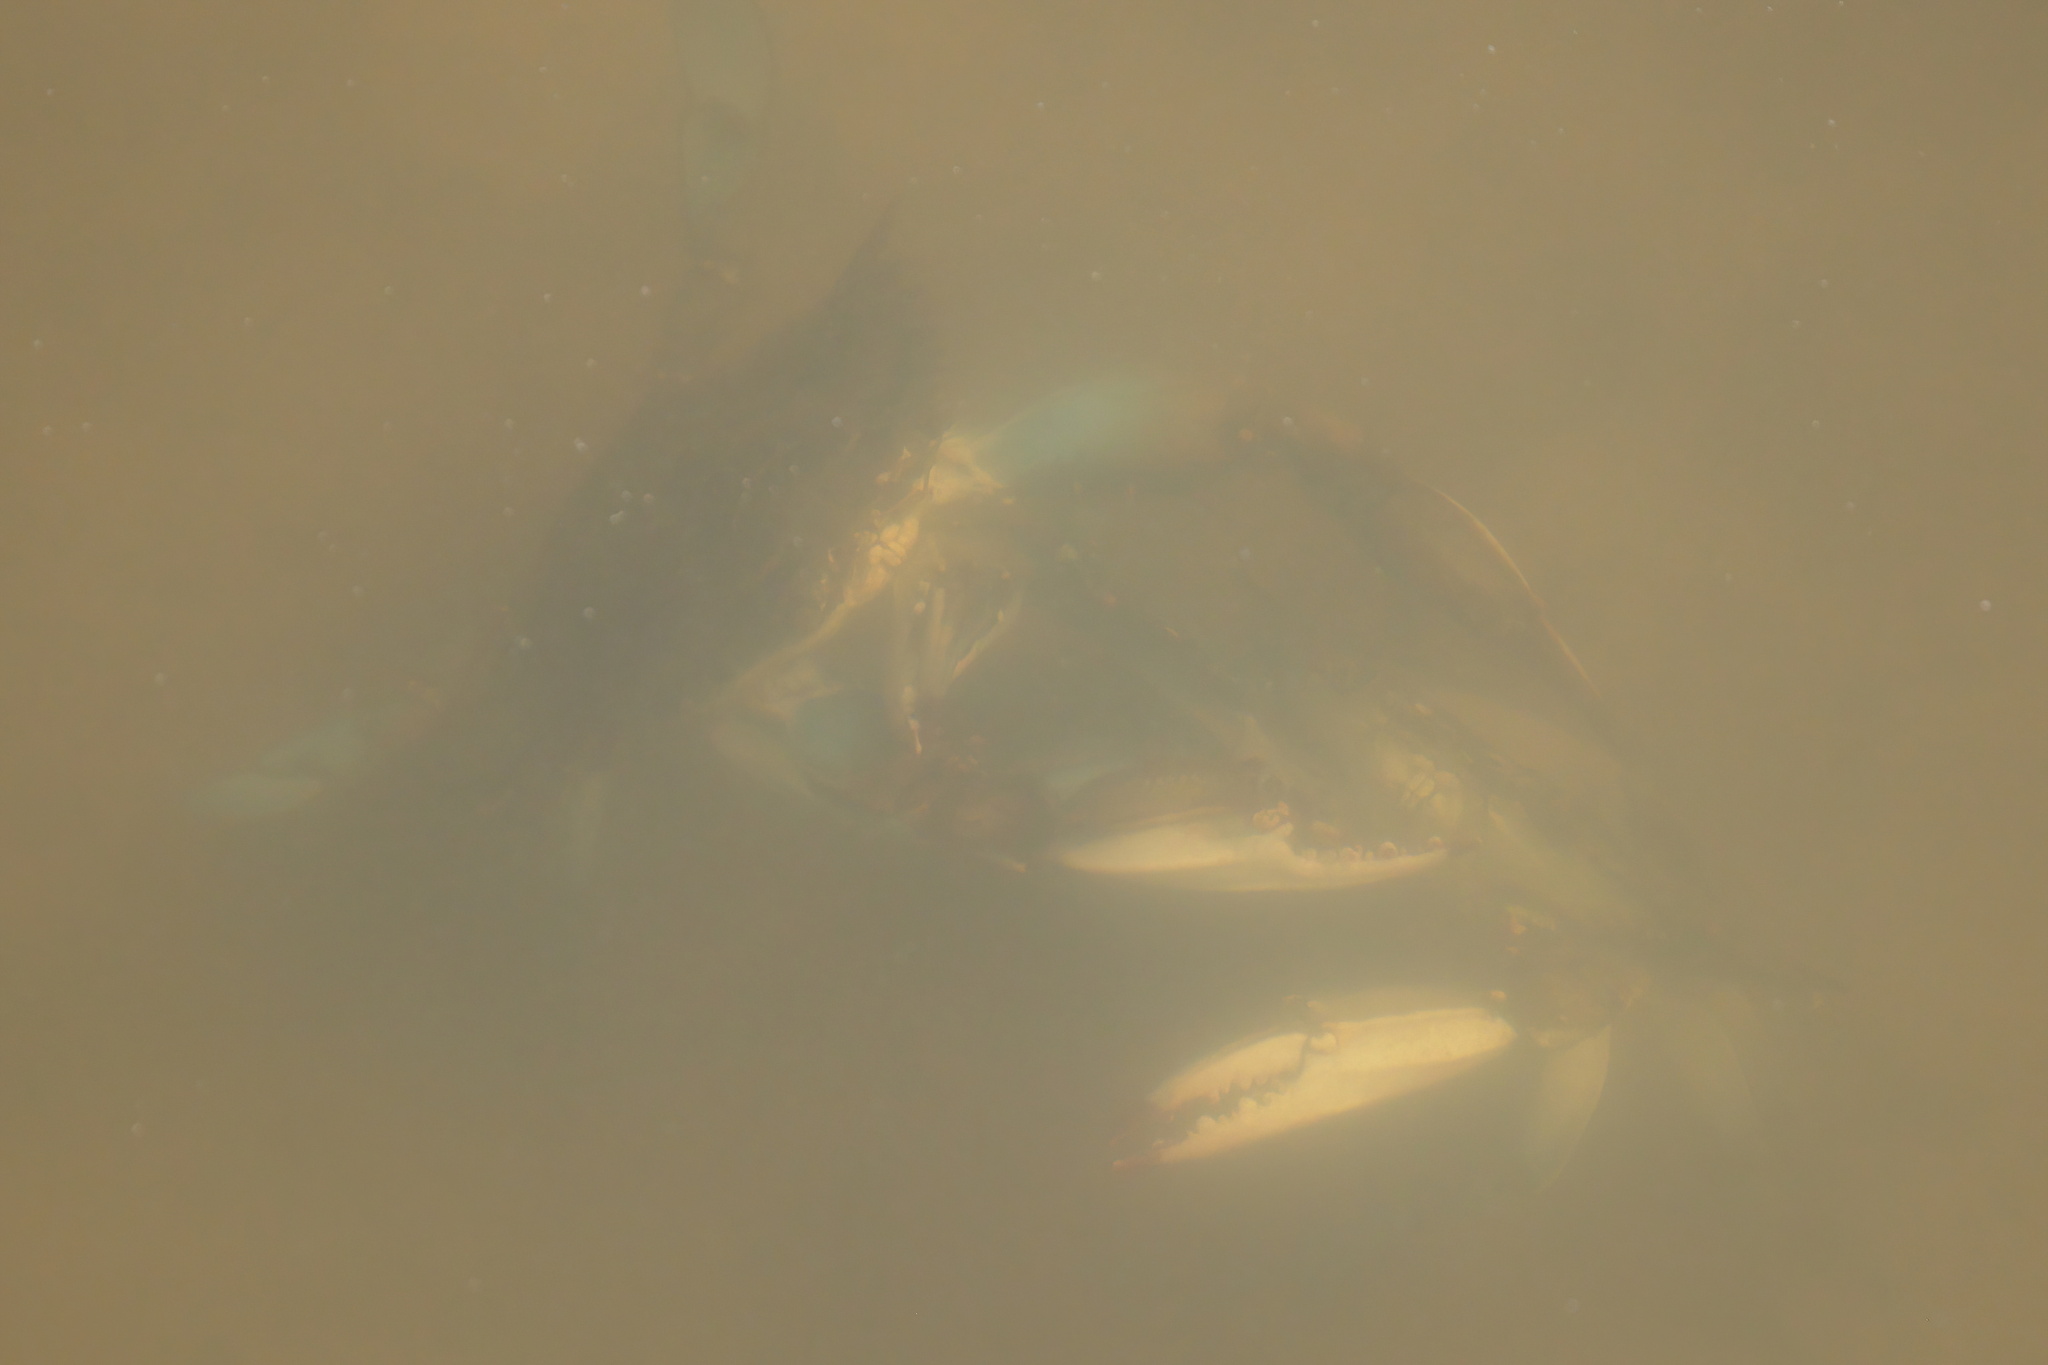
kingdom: Animalia
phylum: Arthropoda
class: Malacostraca
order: Decapoda
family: Portunidae
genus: Callinectes
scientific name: Callinectes sapidus
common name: Blue crab
